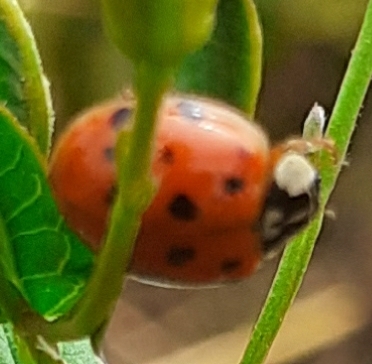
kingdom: Animalia
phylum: Arthropoda
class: Insecta
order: Coleoptera
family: Coccinellidae
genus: Harmonia
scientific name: Harmonia axyridis
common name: Harlequin ladybird
